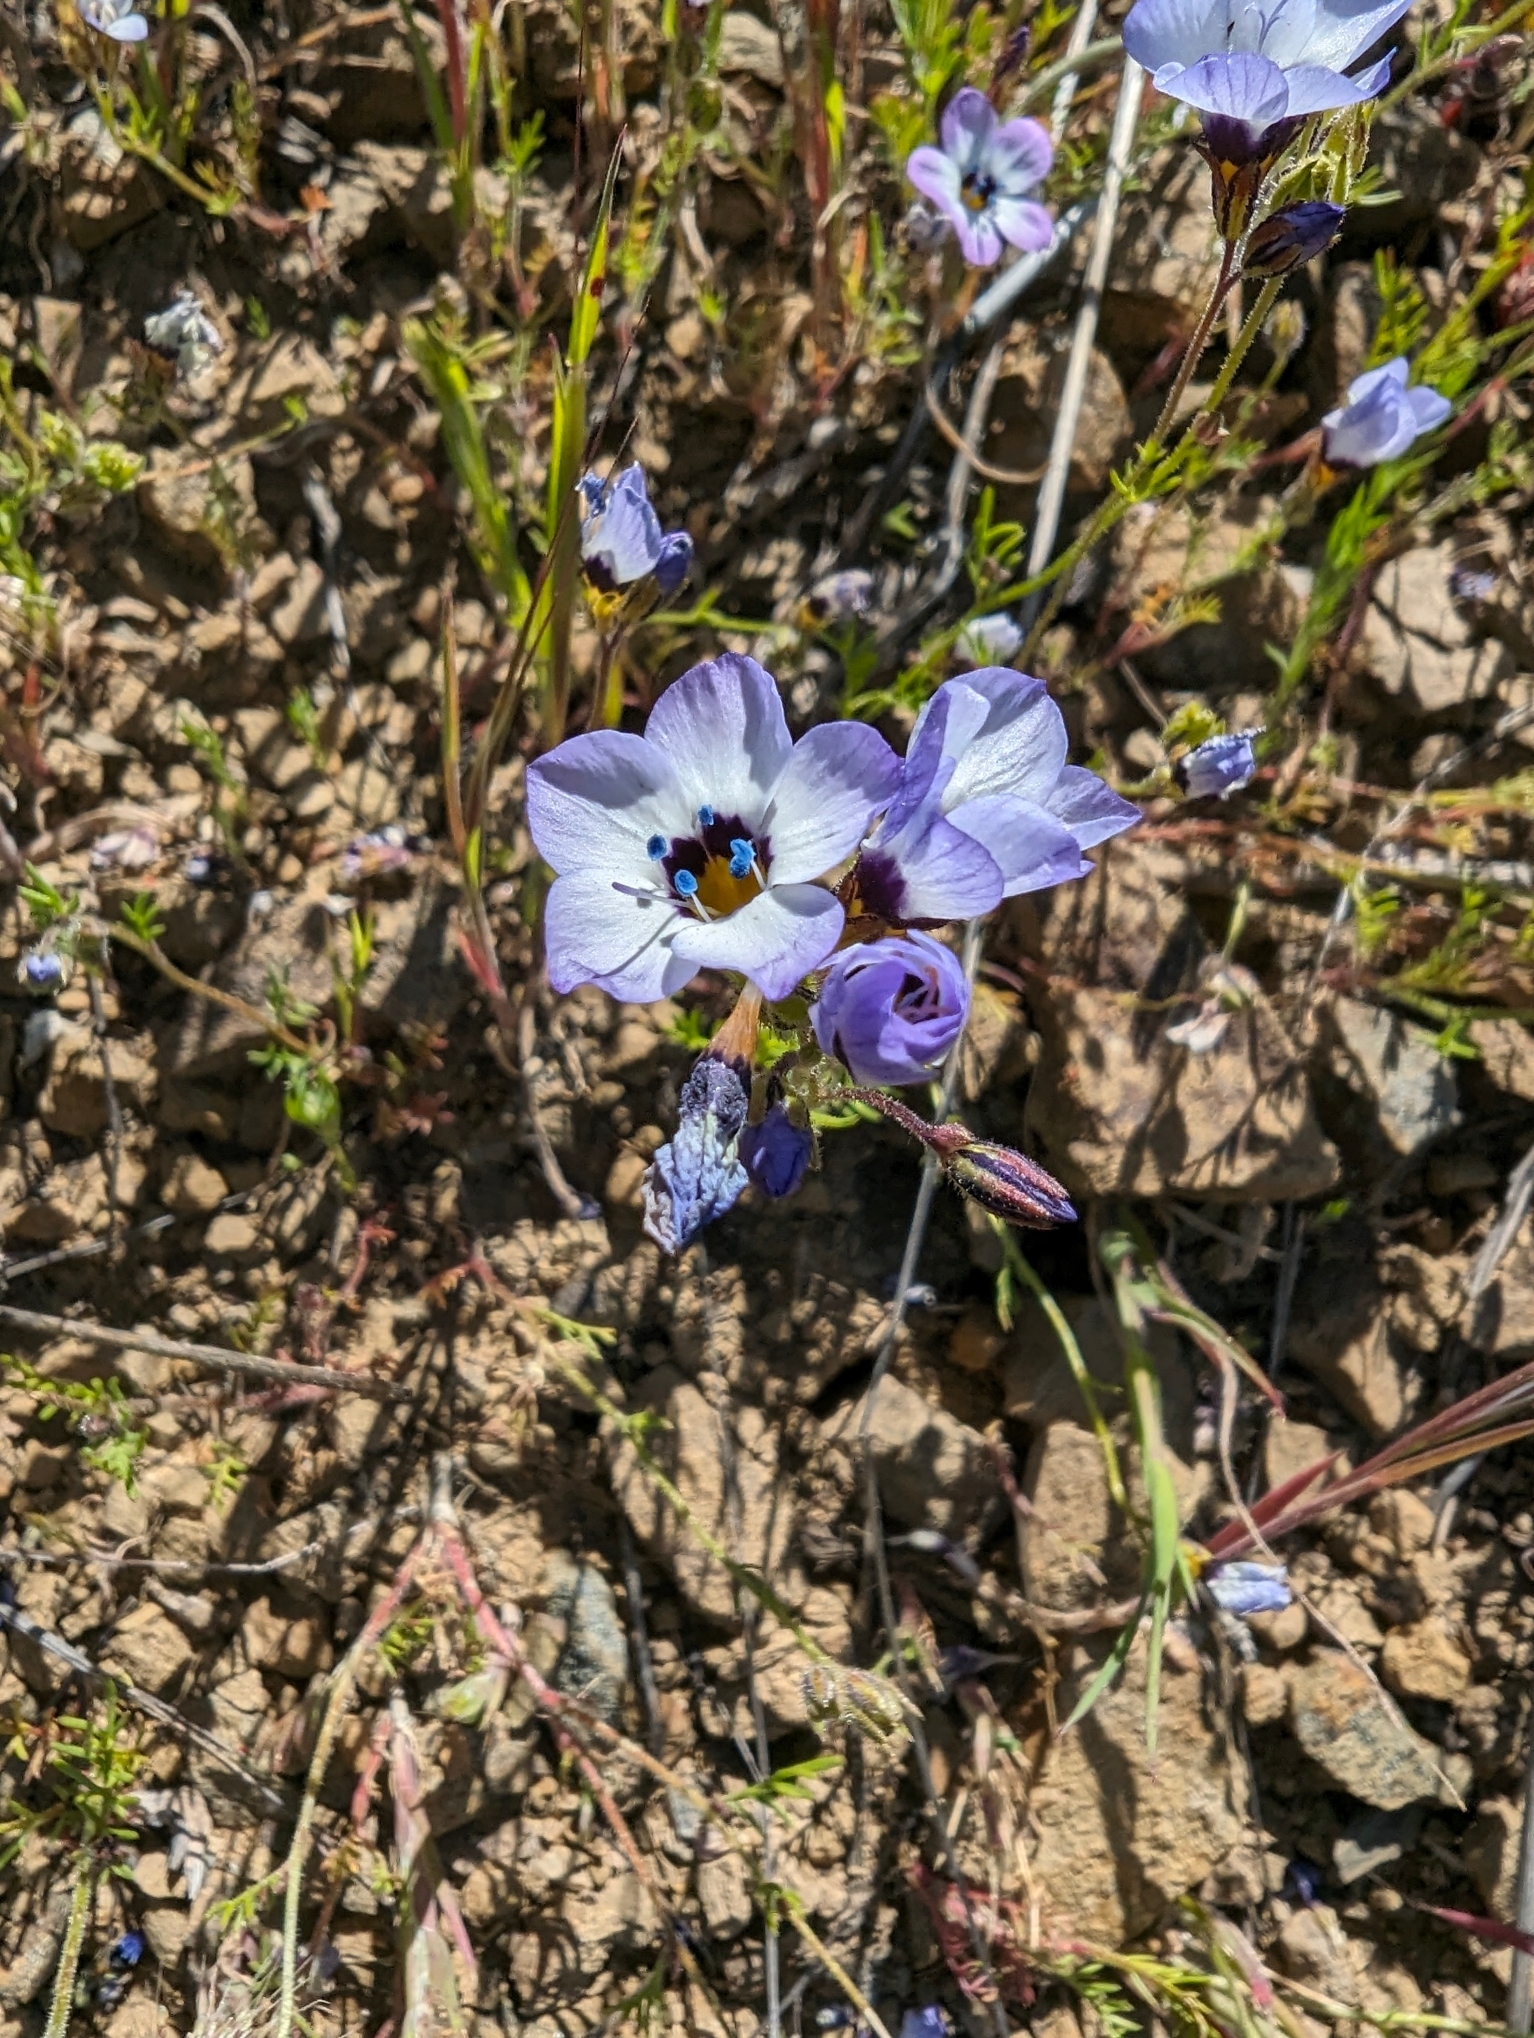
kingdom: Plantae
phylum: Tracheophyta
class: Magnoliopsida
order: Ericales
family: Polemoniaceae
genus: Gilia
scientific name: Gilia tricolor
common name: Bird's-eyes
